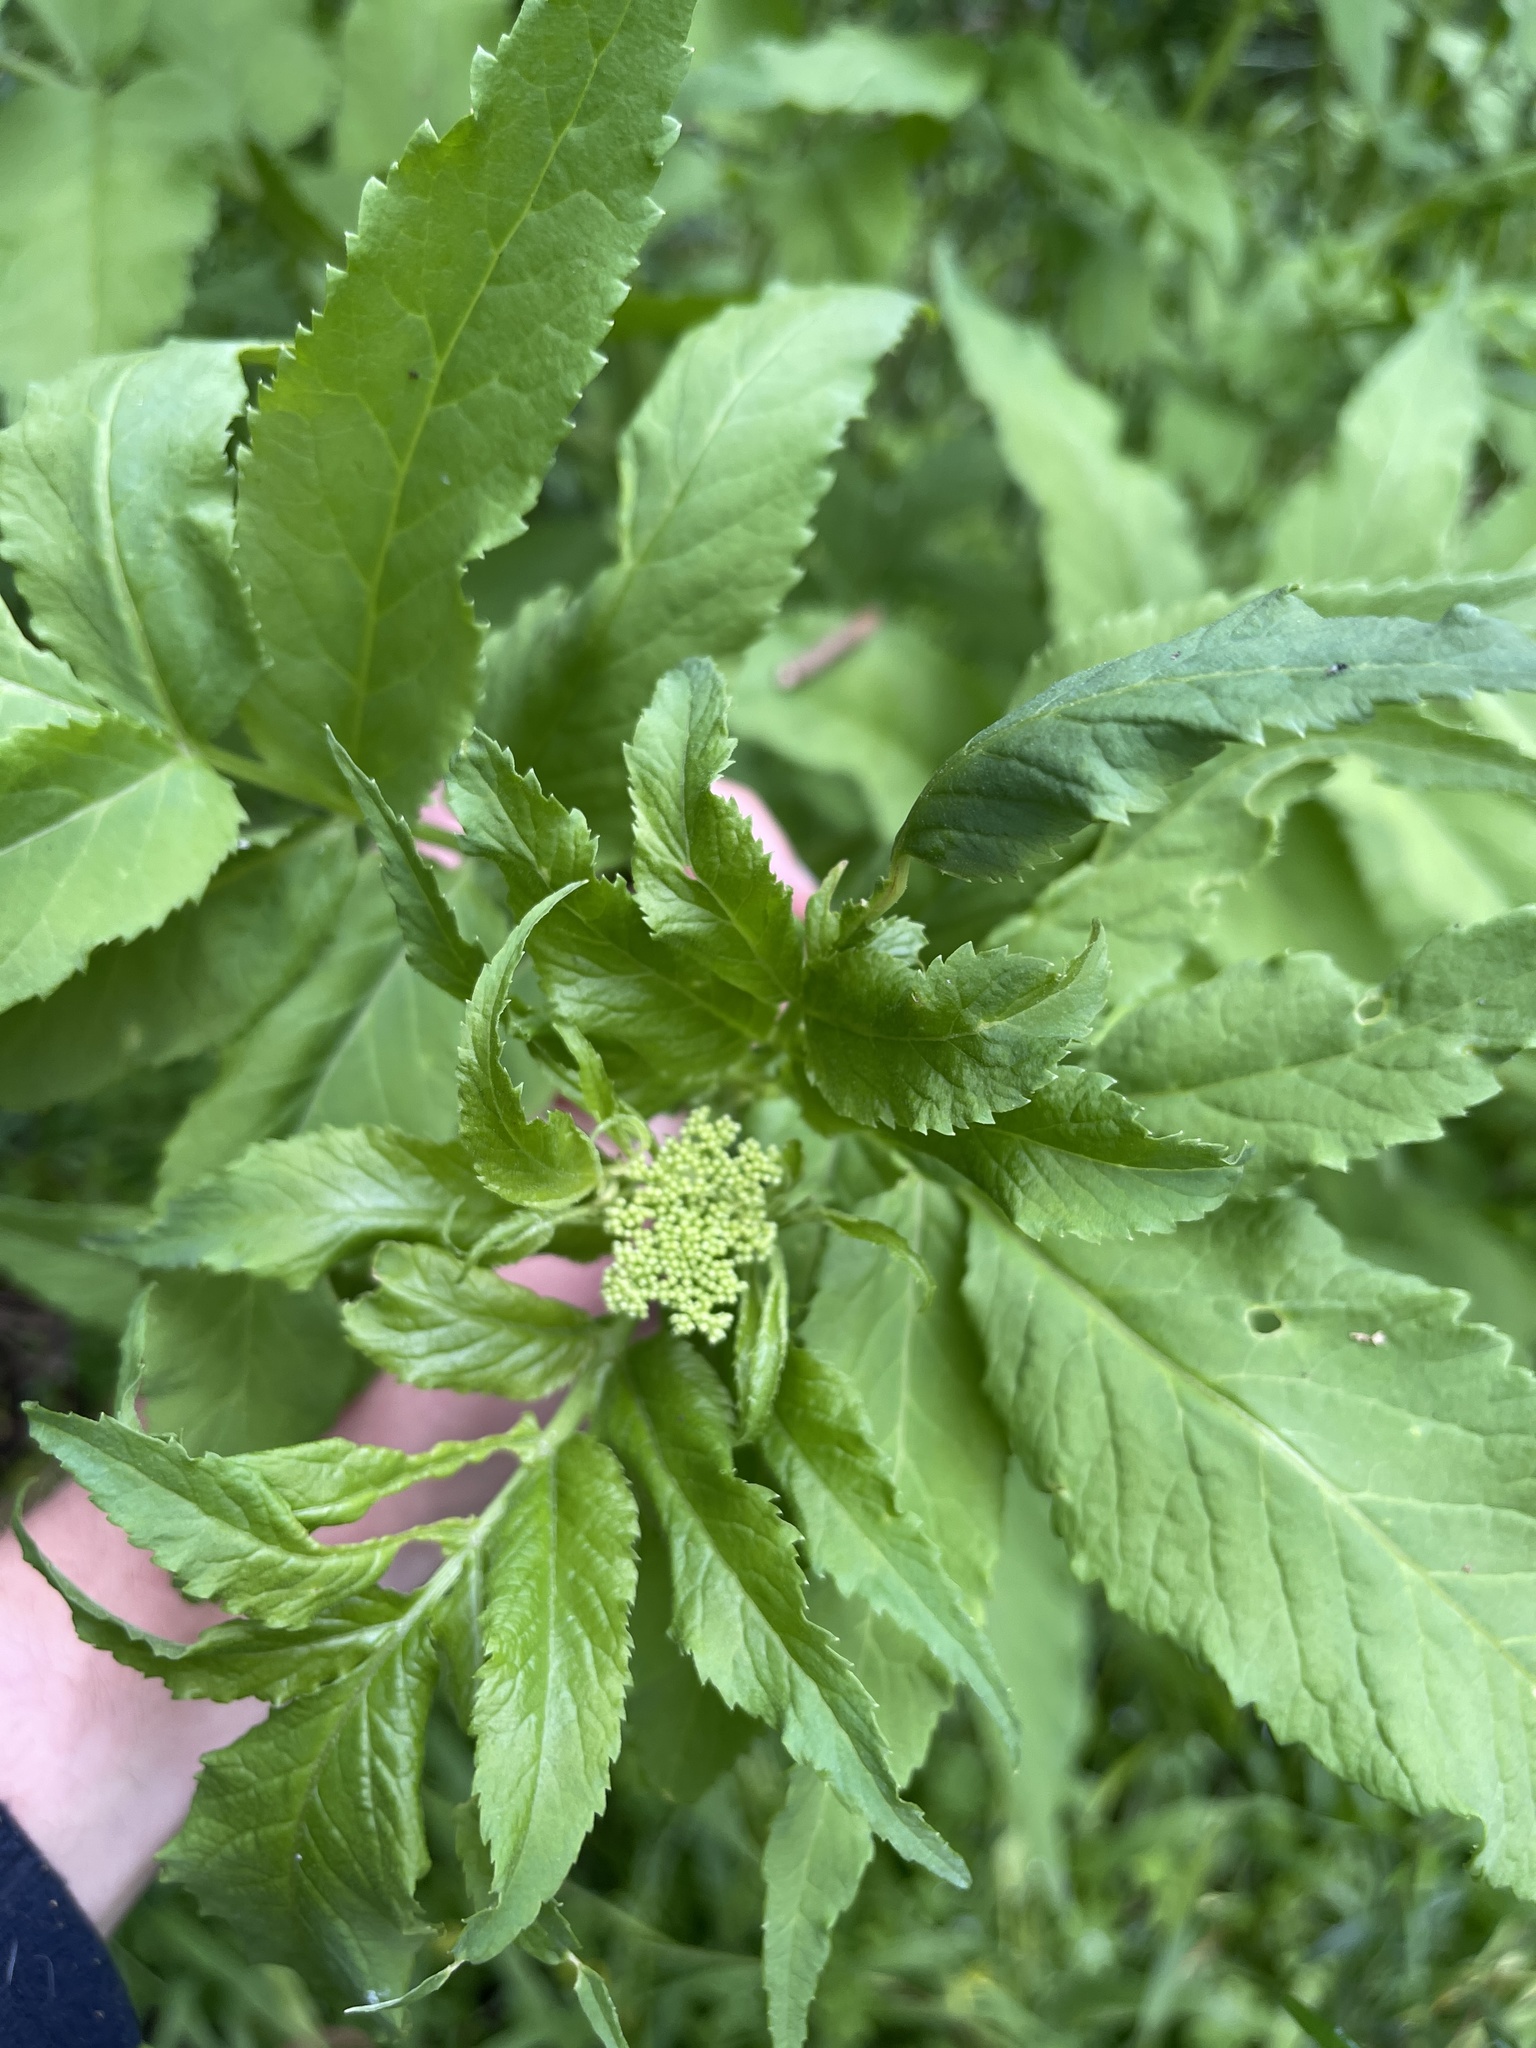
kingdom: Plantae
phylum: Tracheophyta
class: Magnoliopsida
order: Dipsacales
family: Viburnaceae
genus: Sambucus
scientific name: Sambucus gaudichaudiana
